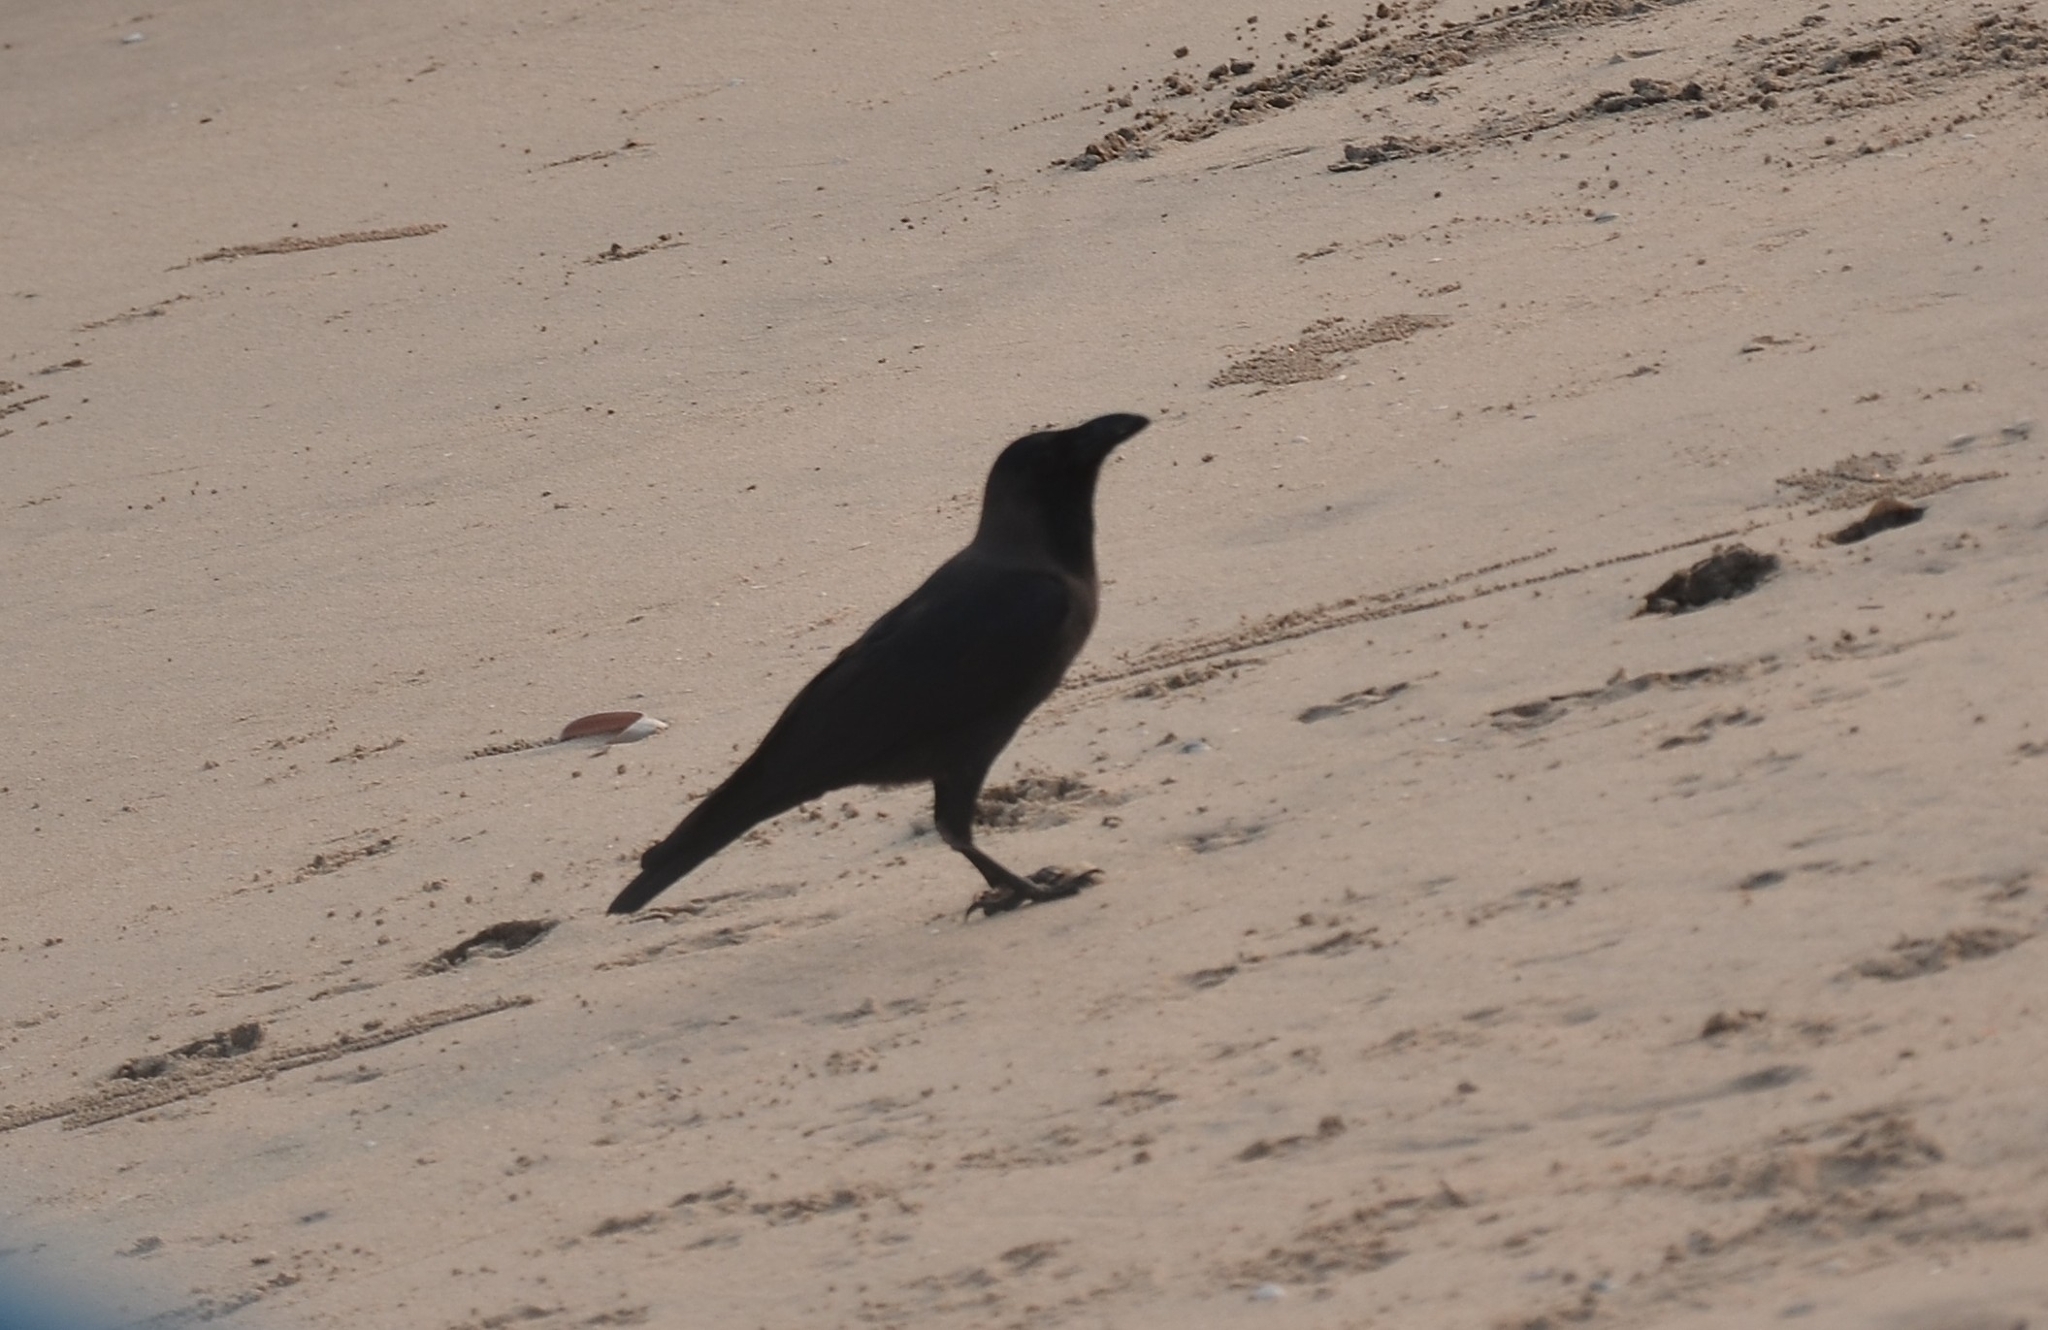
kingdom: Animalia
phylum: Chordata
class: Aves
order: Passeriformes
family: Corvidae
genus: Corvus
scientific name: Corvus splendens
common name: House crow
